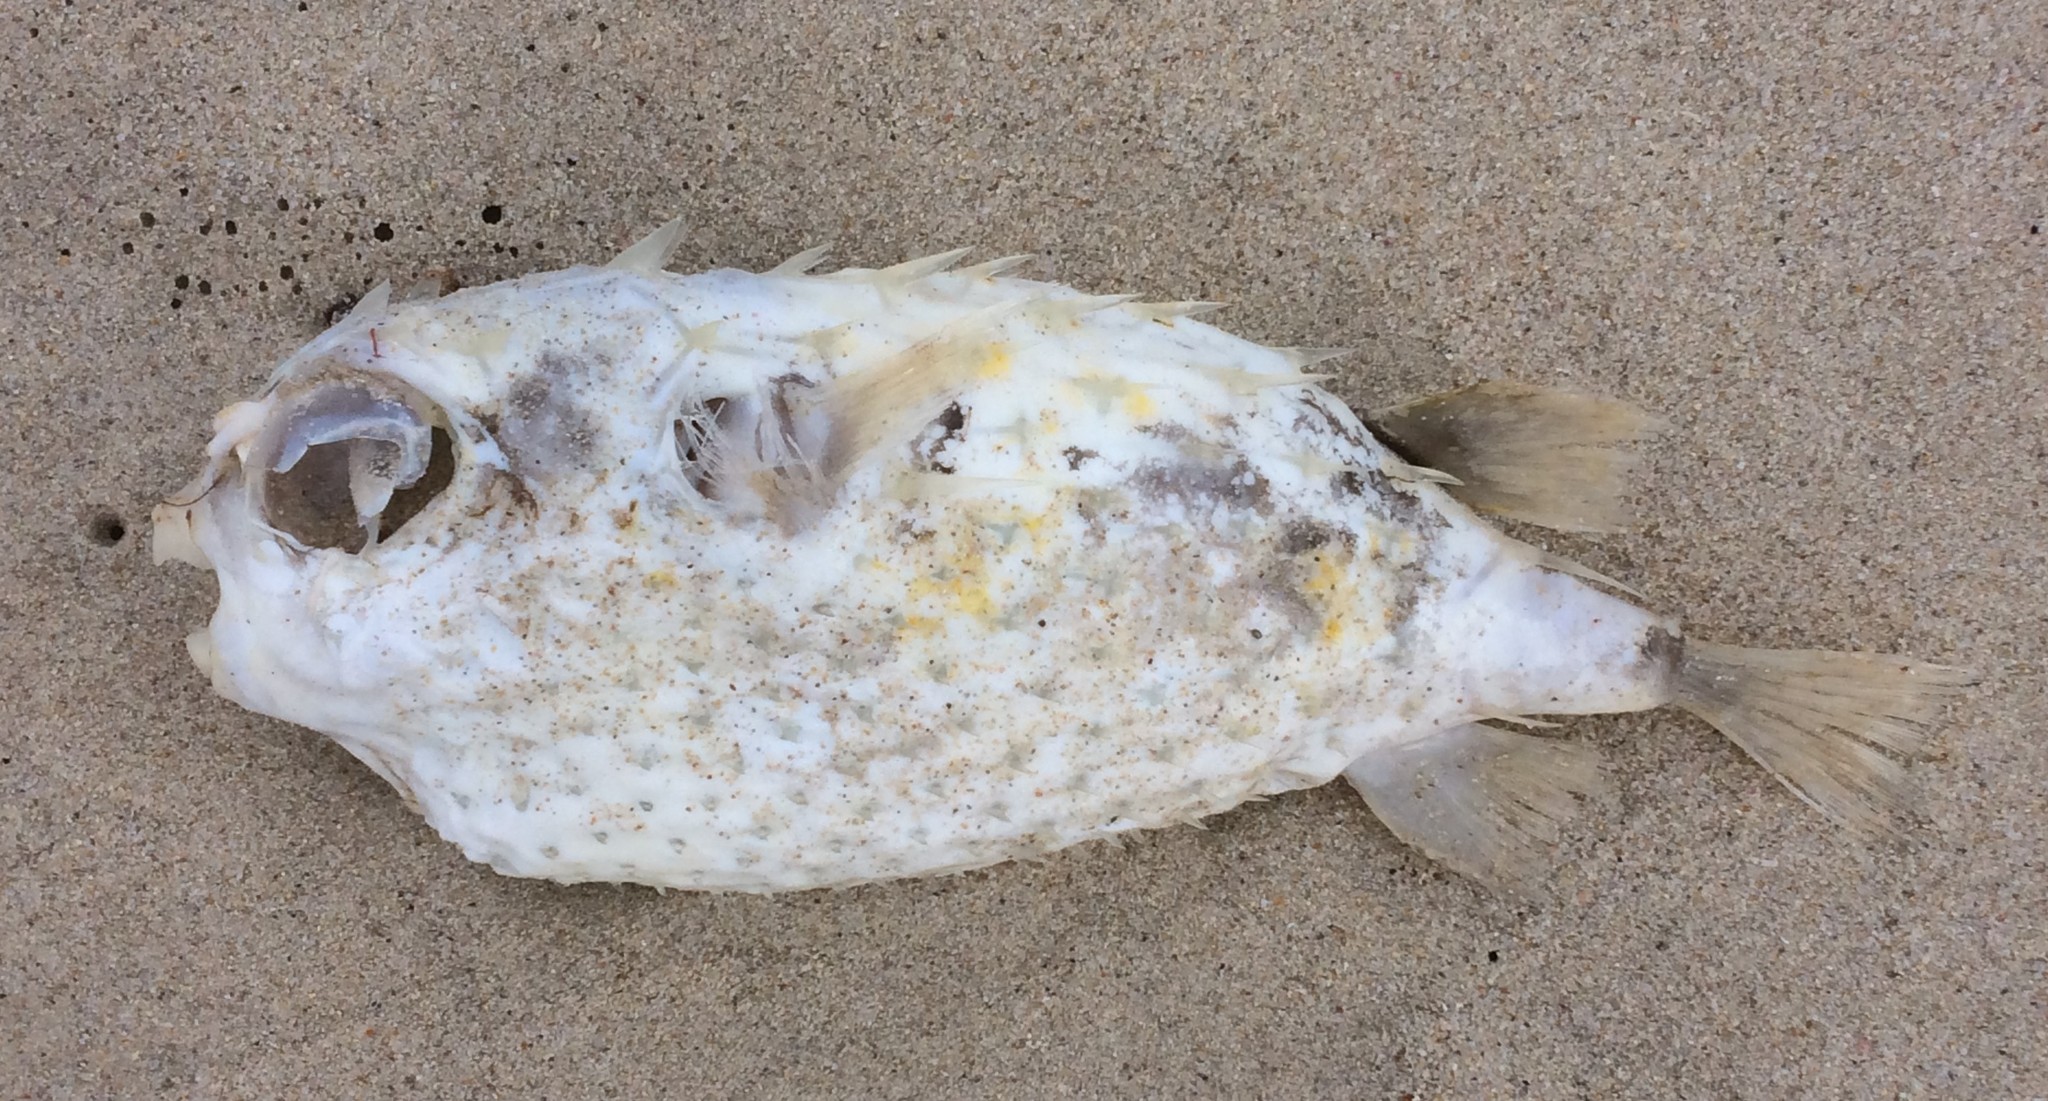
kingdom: Animalia
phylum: Chordata
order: Tetraodontiformes
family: Diodontidae
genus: Allomycterus
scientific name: Allomycterus pilatus
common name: No common name
